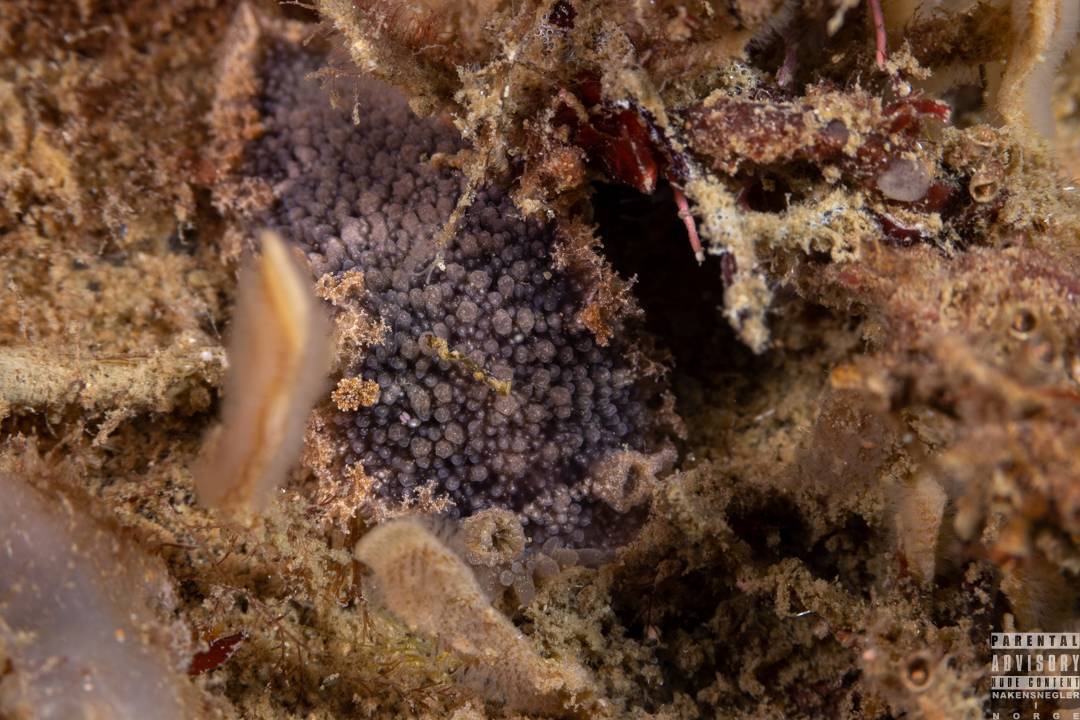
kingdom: Animalia
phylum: Mollusca
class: Gastropoda
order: Nudibranchia
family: Tritoniidae
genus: Tritonia
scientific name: Tritonia hombergii
